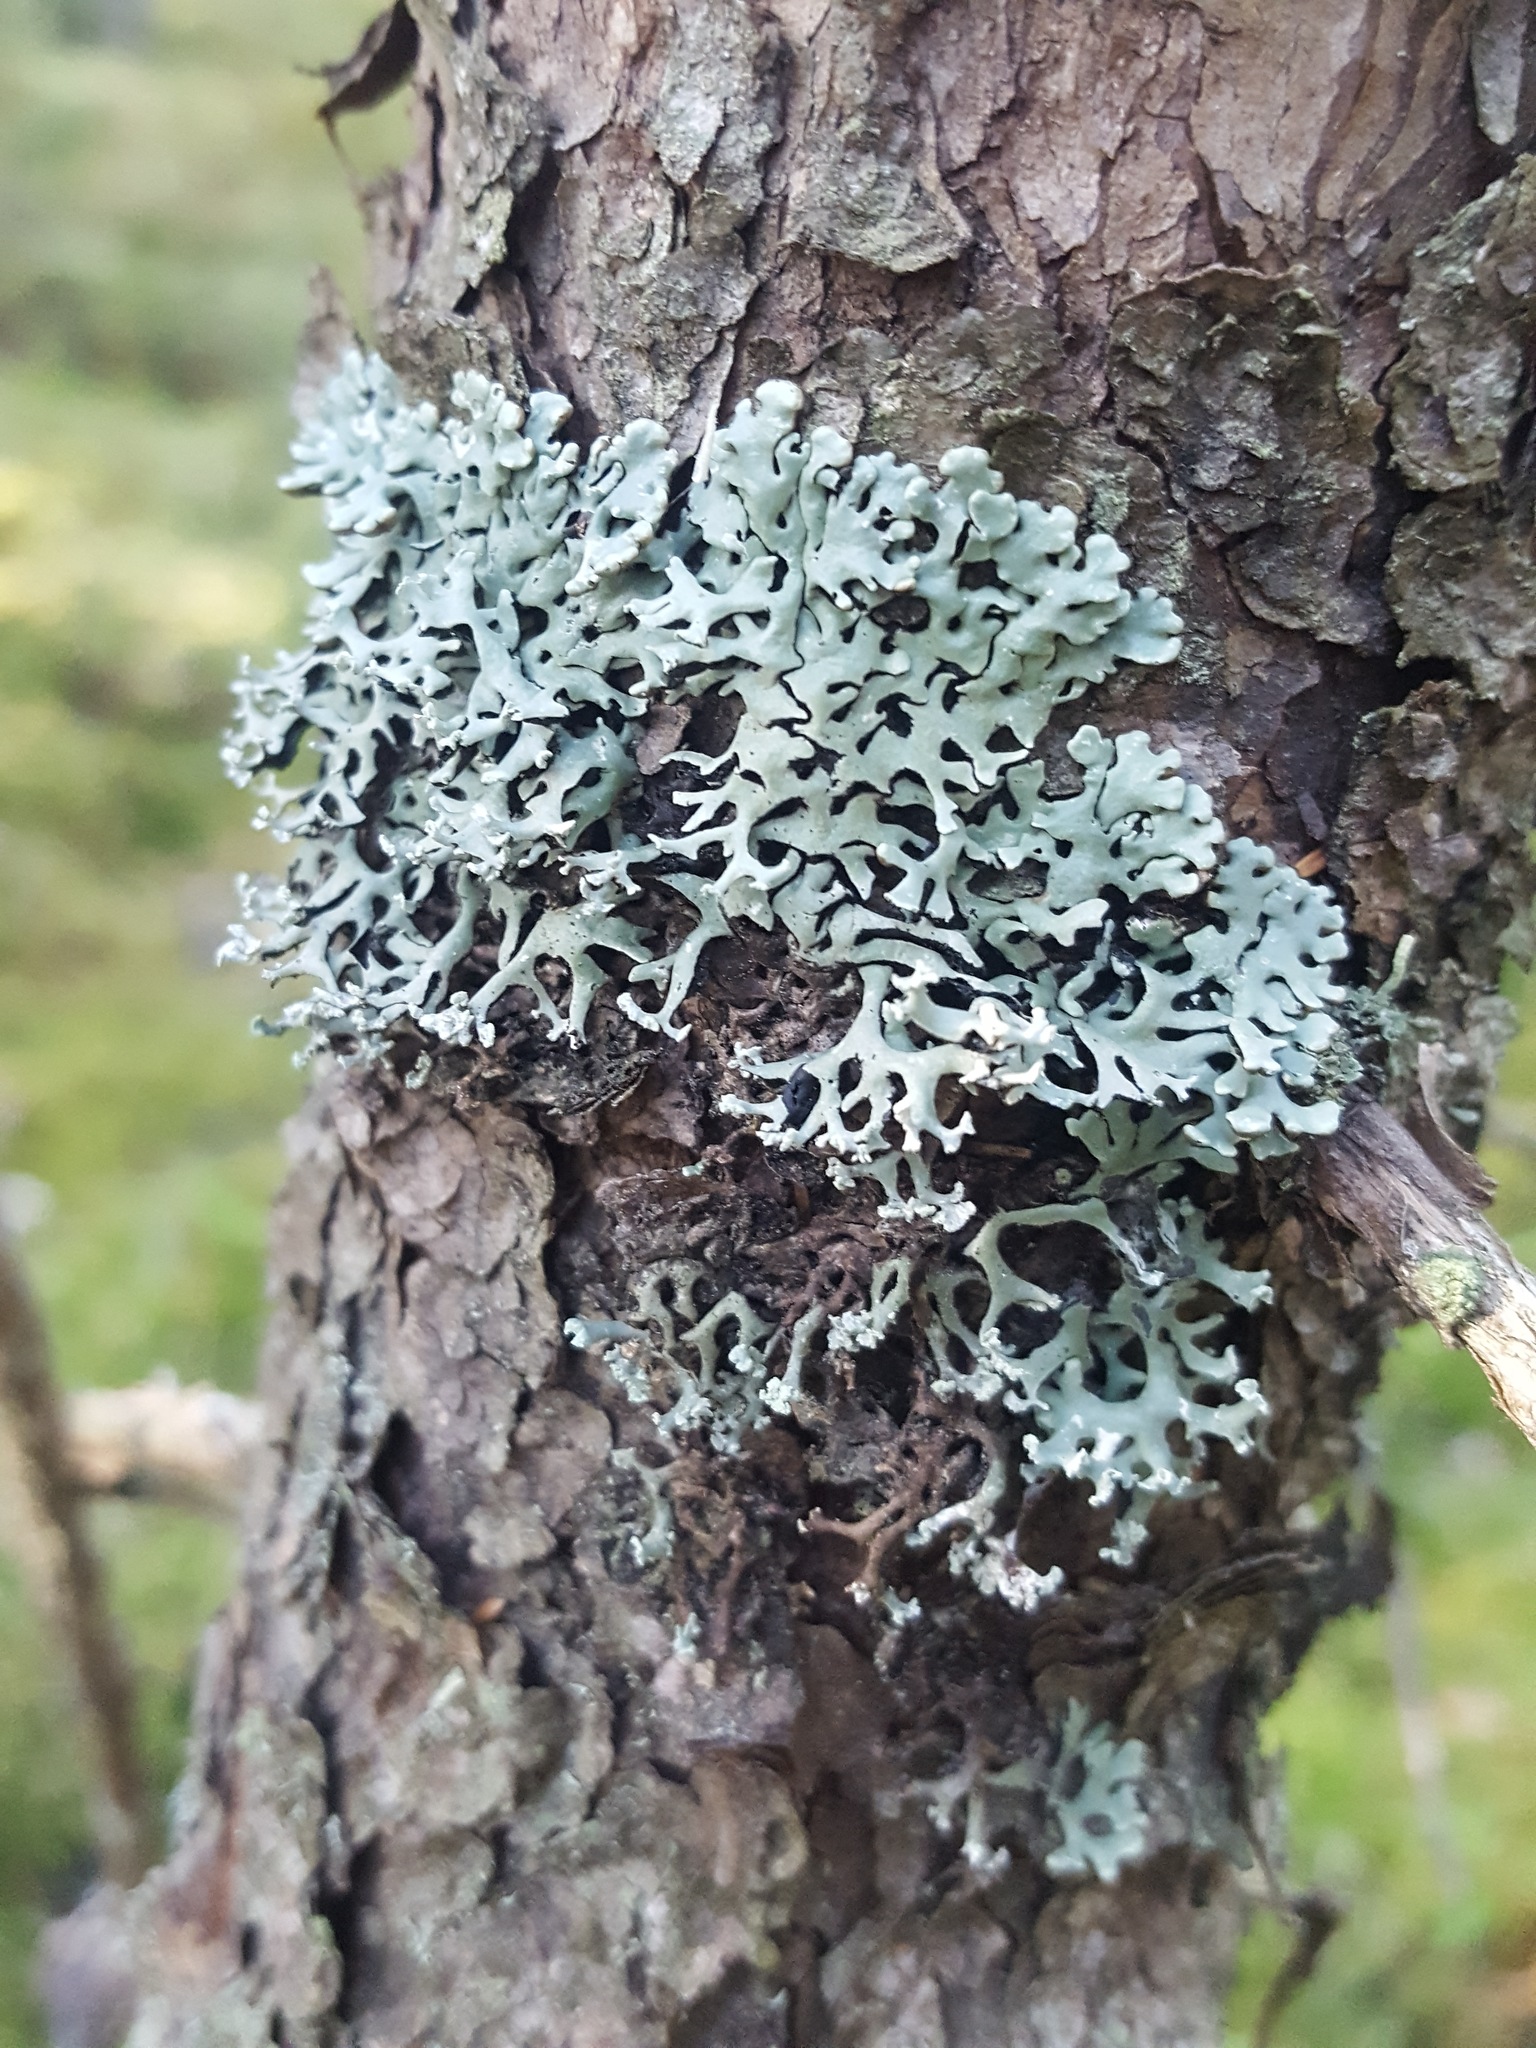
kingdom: Fungi
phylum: Ascomycota
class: Lecanoromycetes
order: Lecanorales
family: Parmeliaceae
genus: Hypogymnia
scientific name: Hypogymnia physodes
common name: Dark crottle
